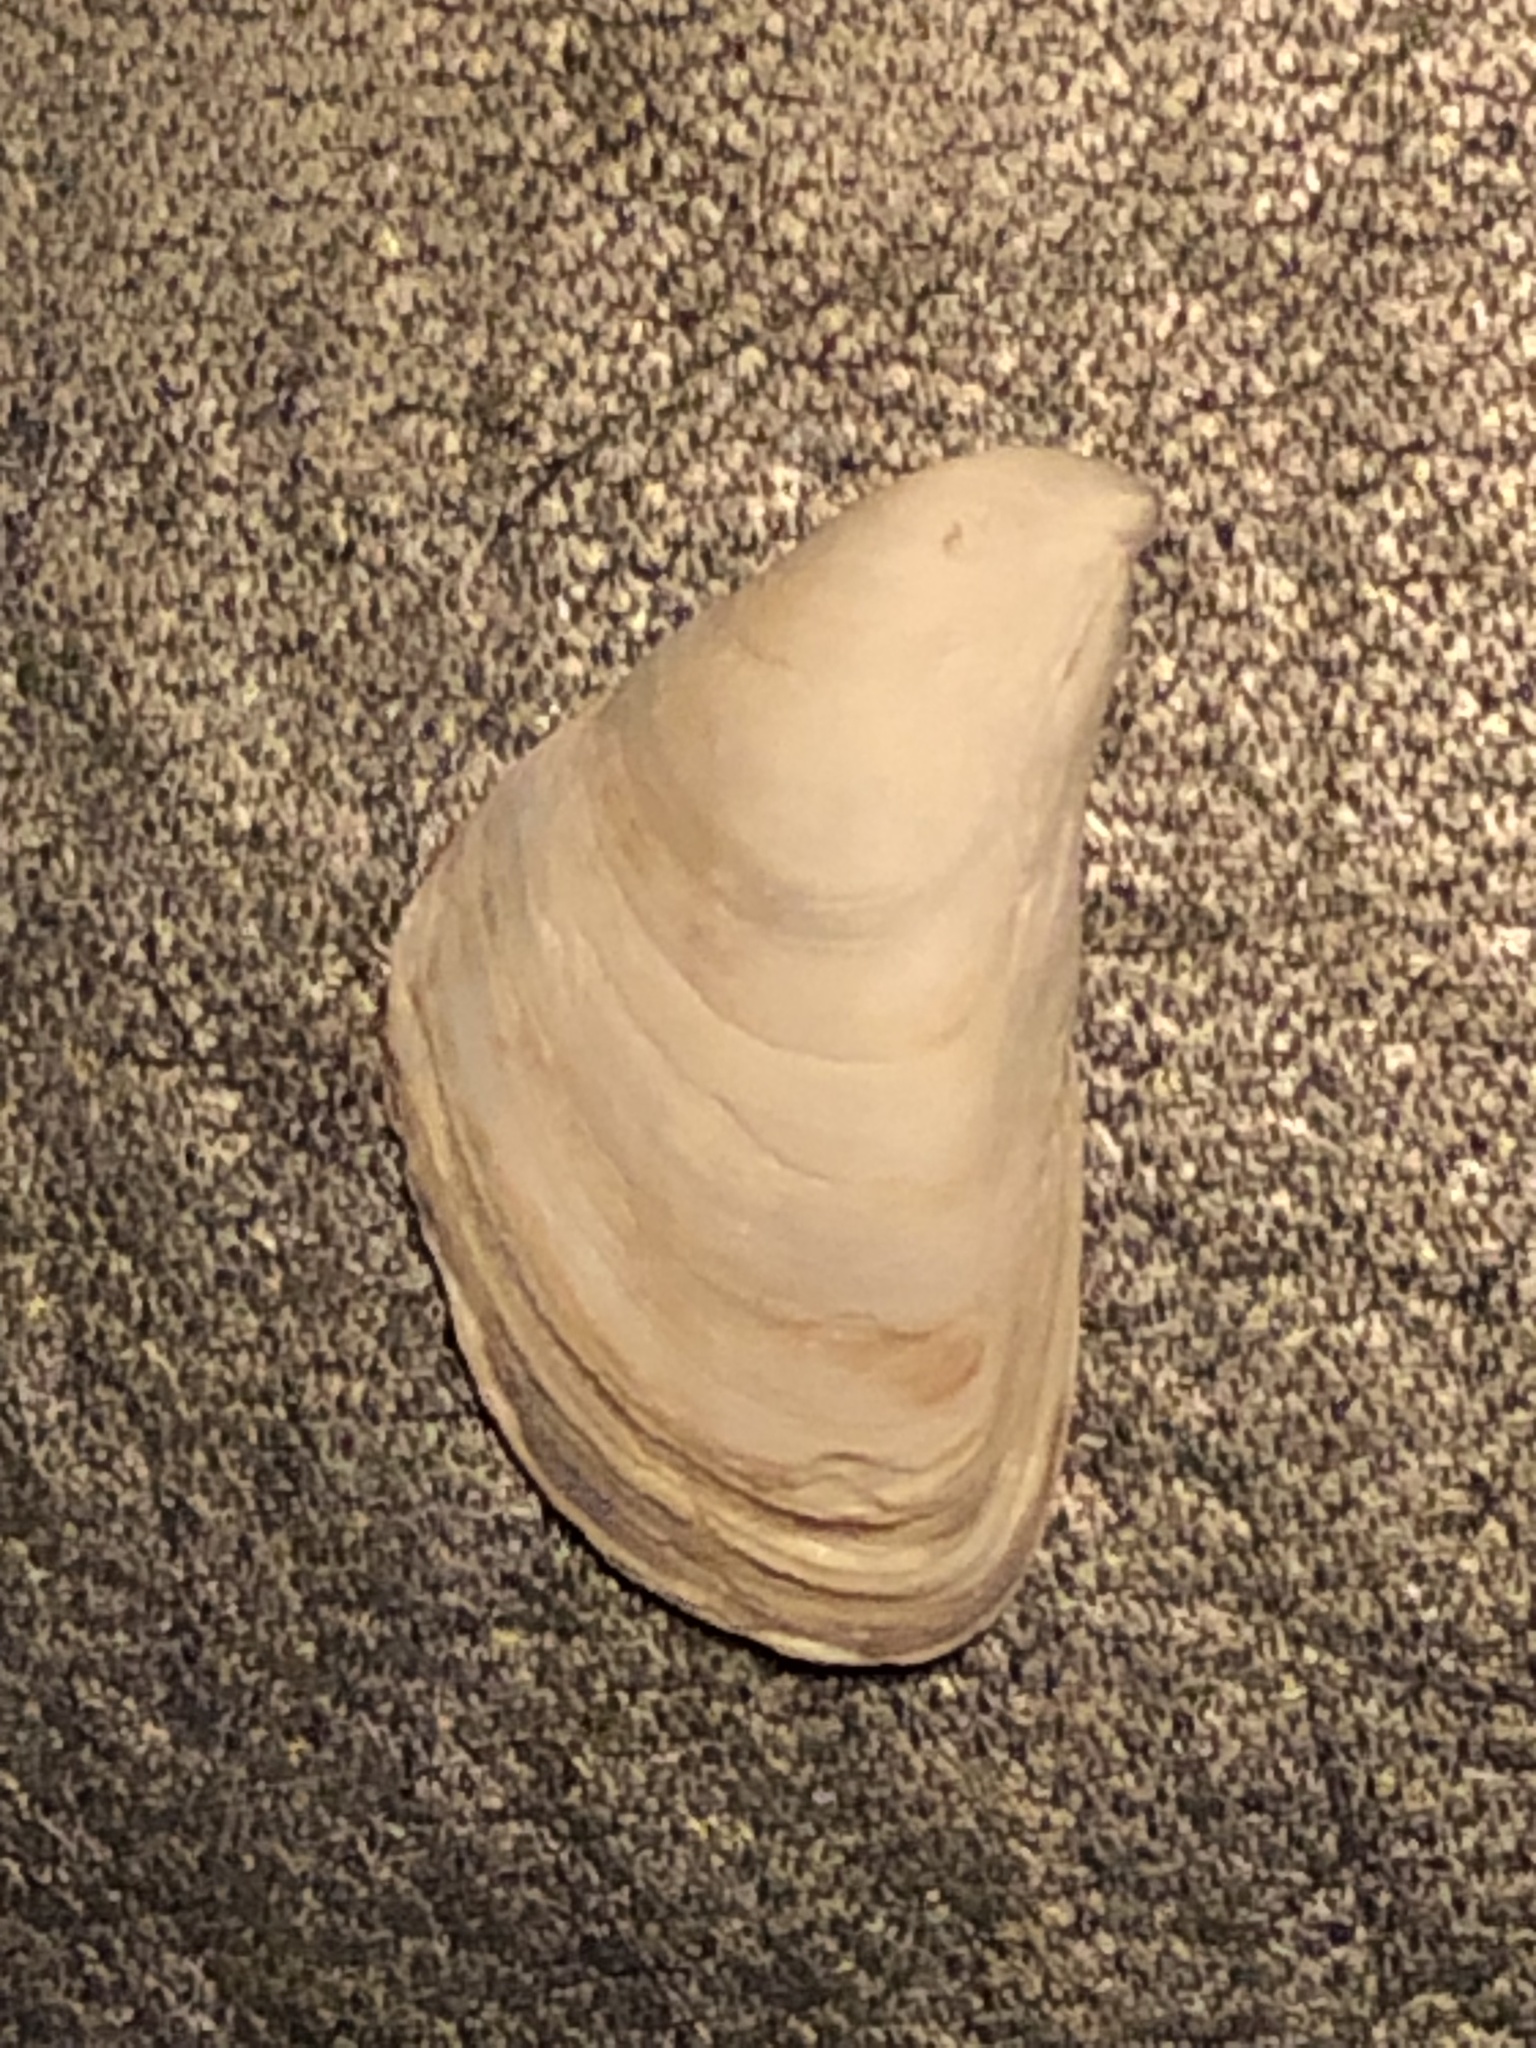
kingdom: Animalia
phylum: Mollusca
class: Bivalvia
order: Myida
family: Dreissenidae
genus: Dreissena
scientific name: Dreissena bugensis
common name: Quagga mussel
